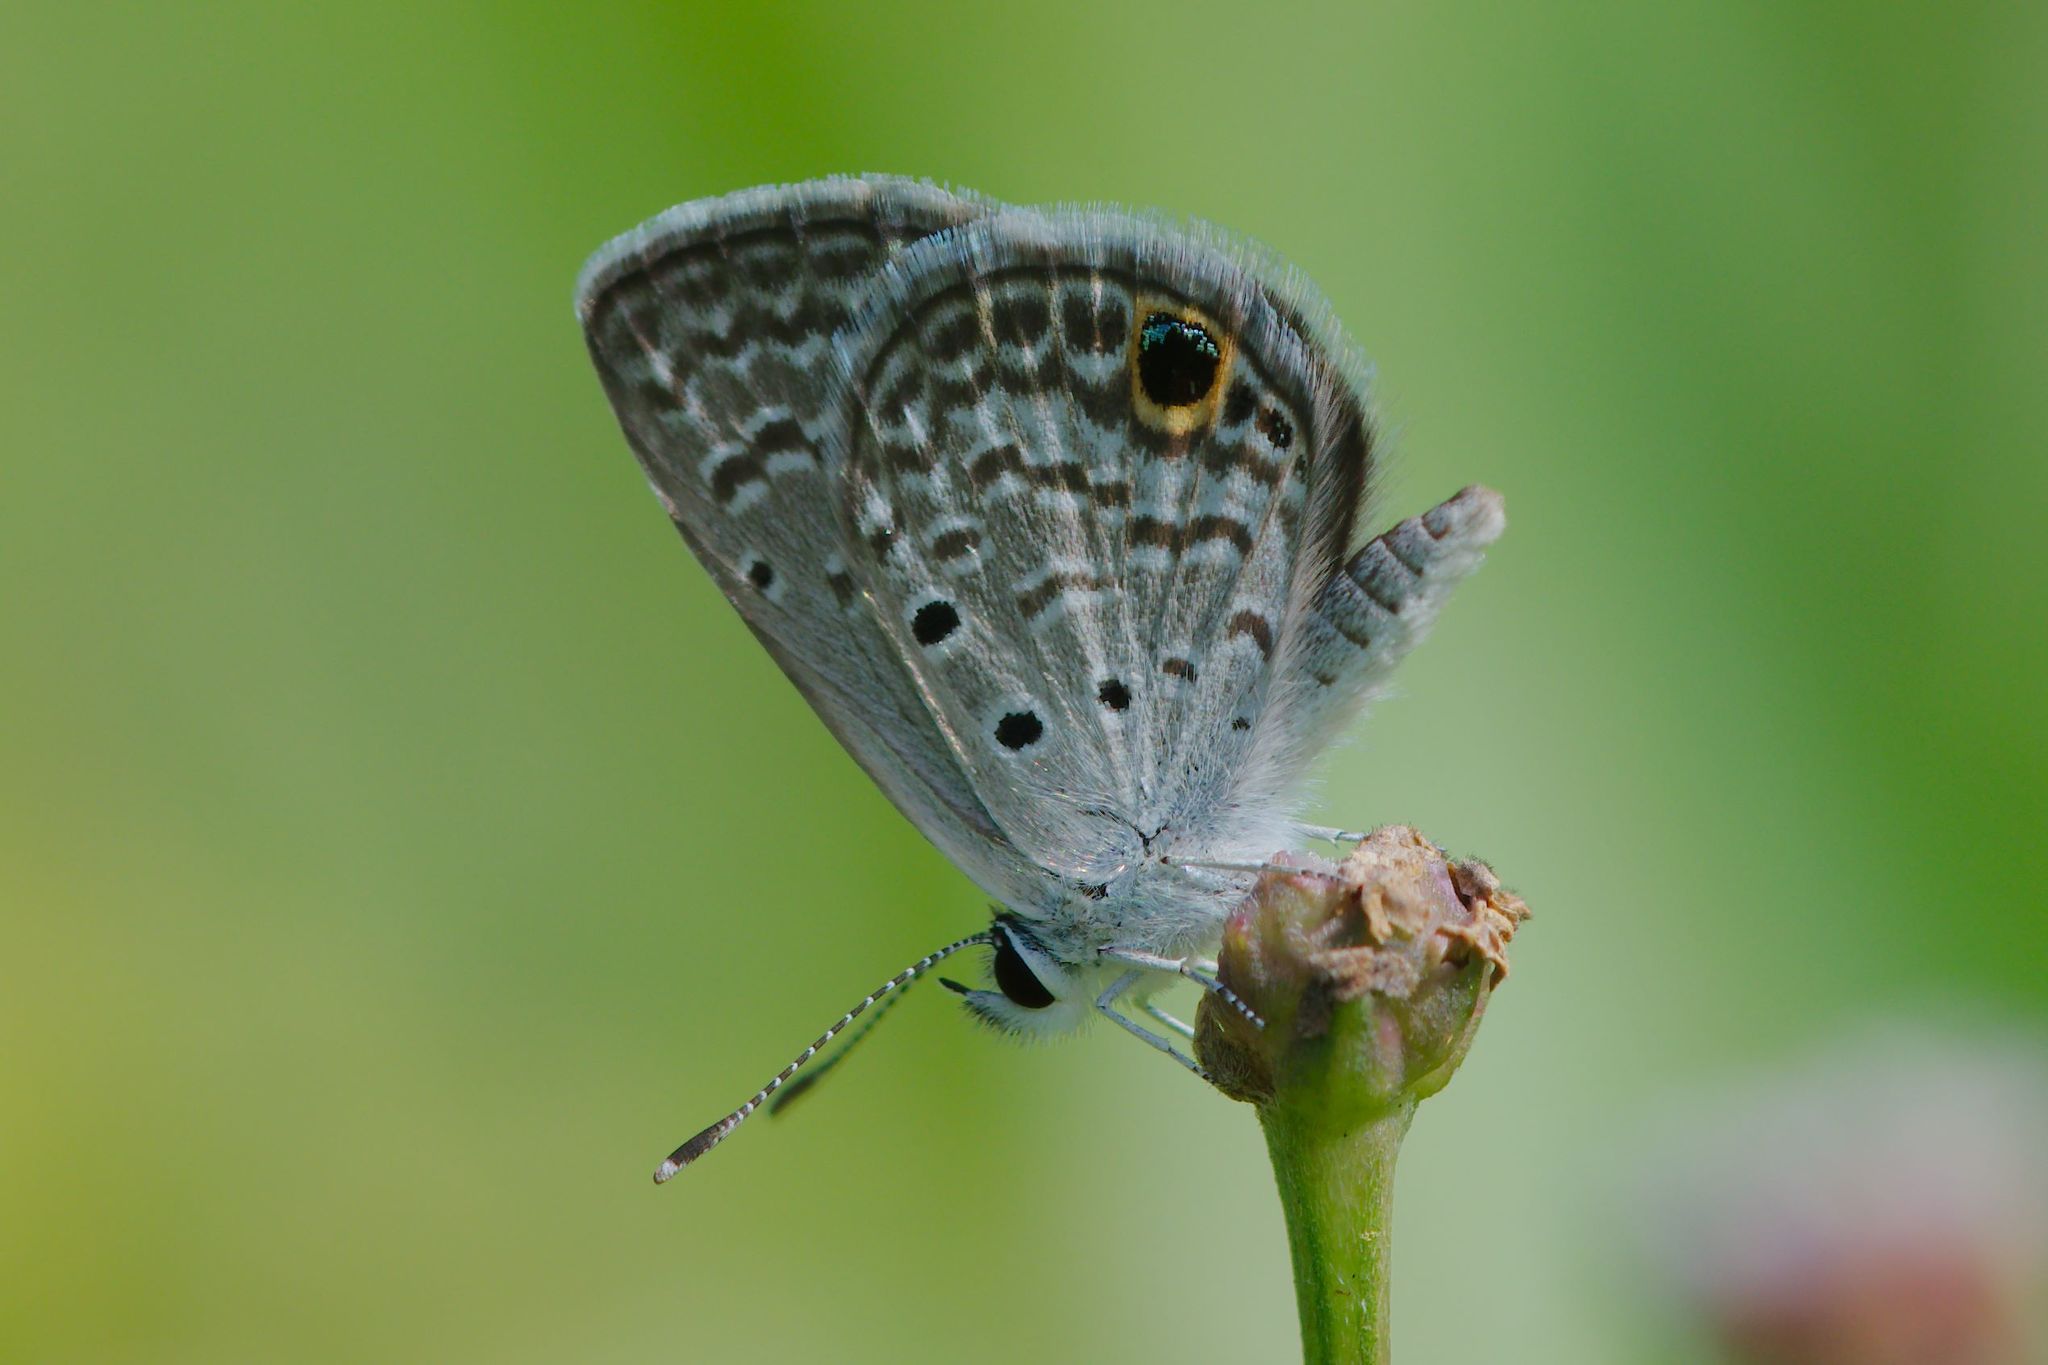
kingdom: Animalia
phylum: Arthropoda
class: Insecta
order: Lepidoptera
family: Lycaenidae
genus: Hemiargus
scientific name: Hemiargus ceraunus
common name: Ceraunus blue
